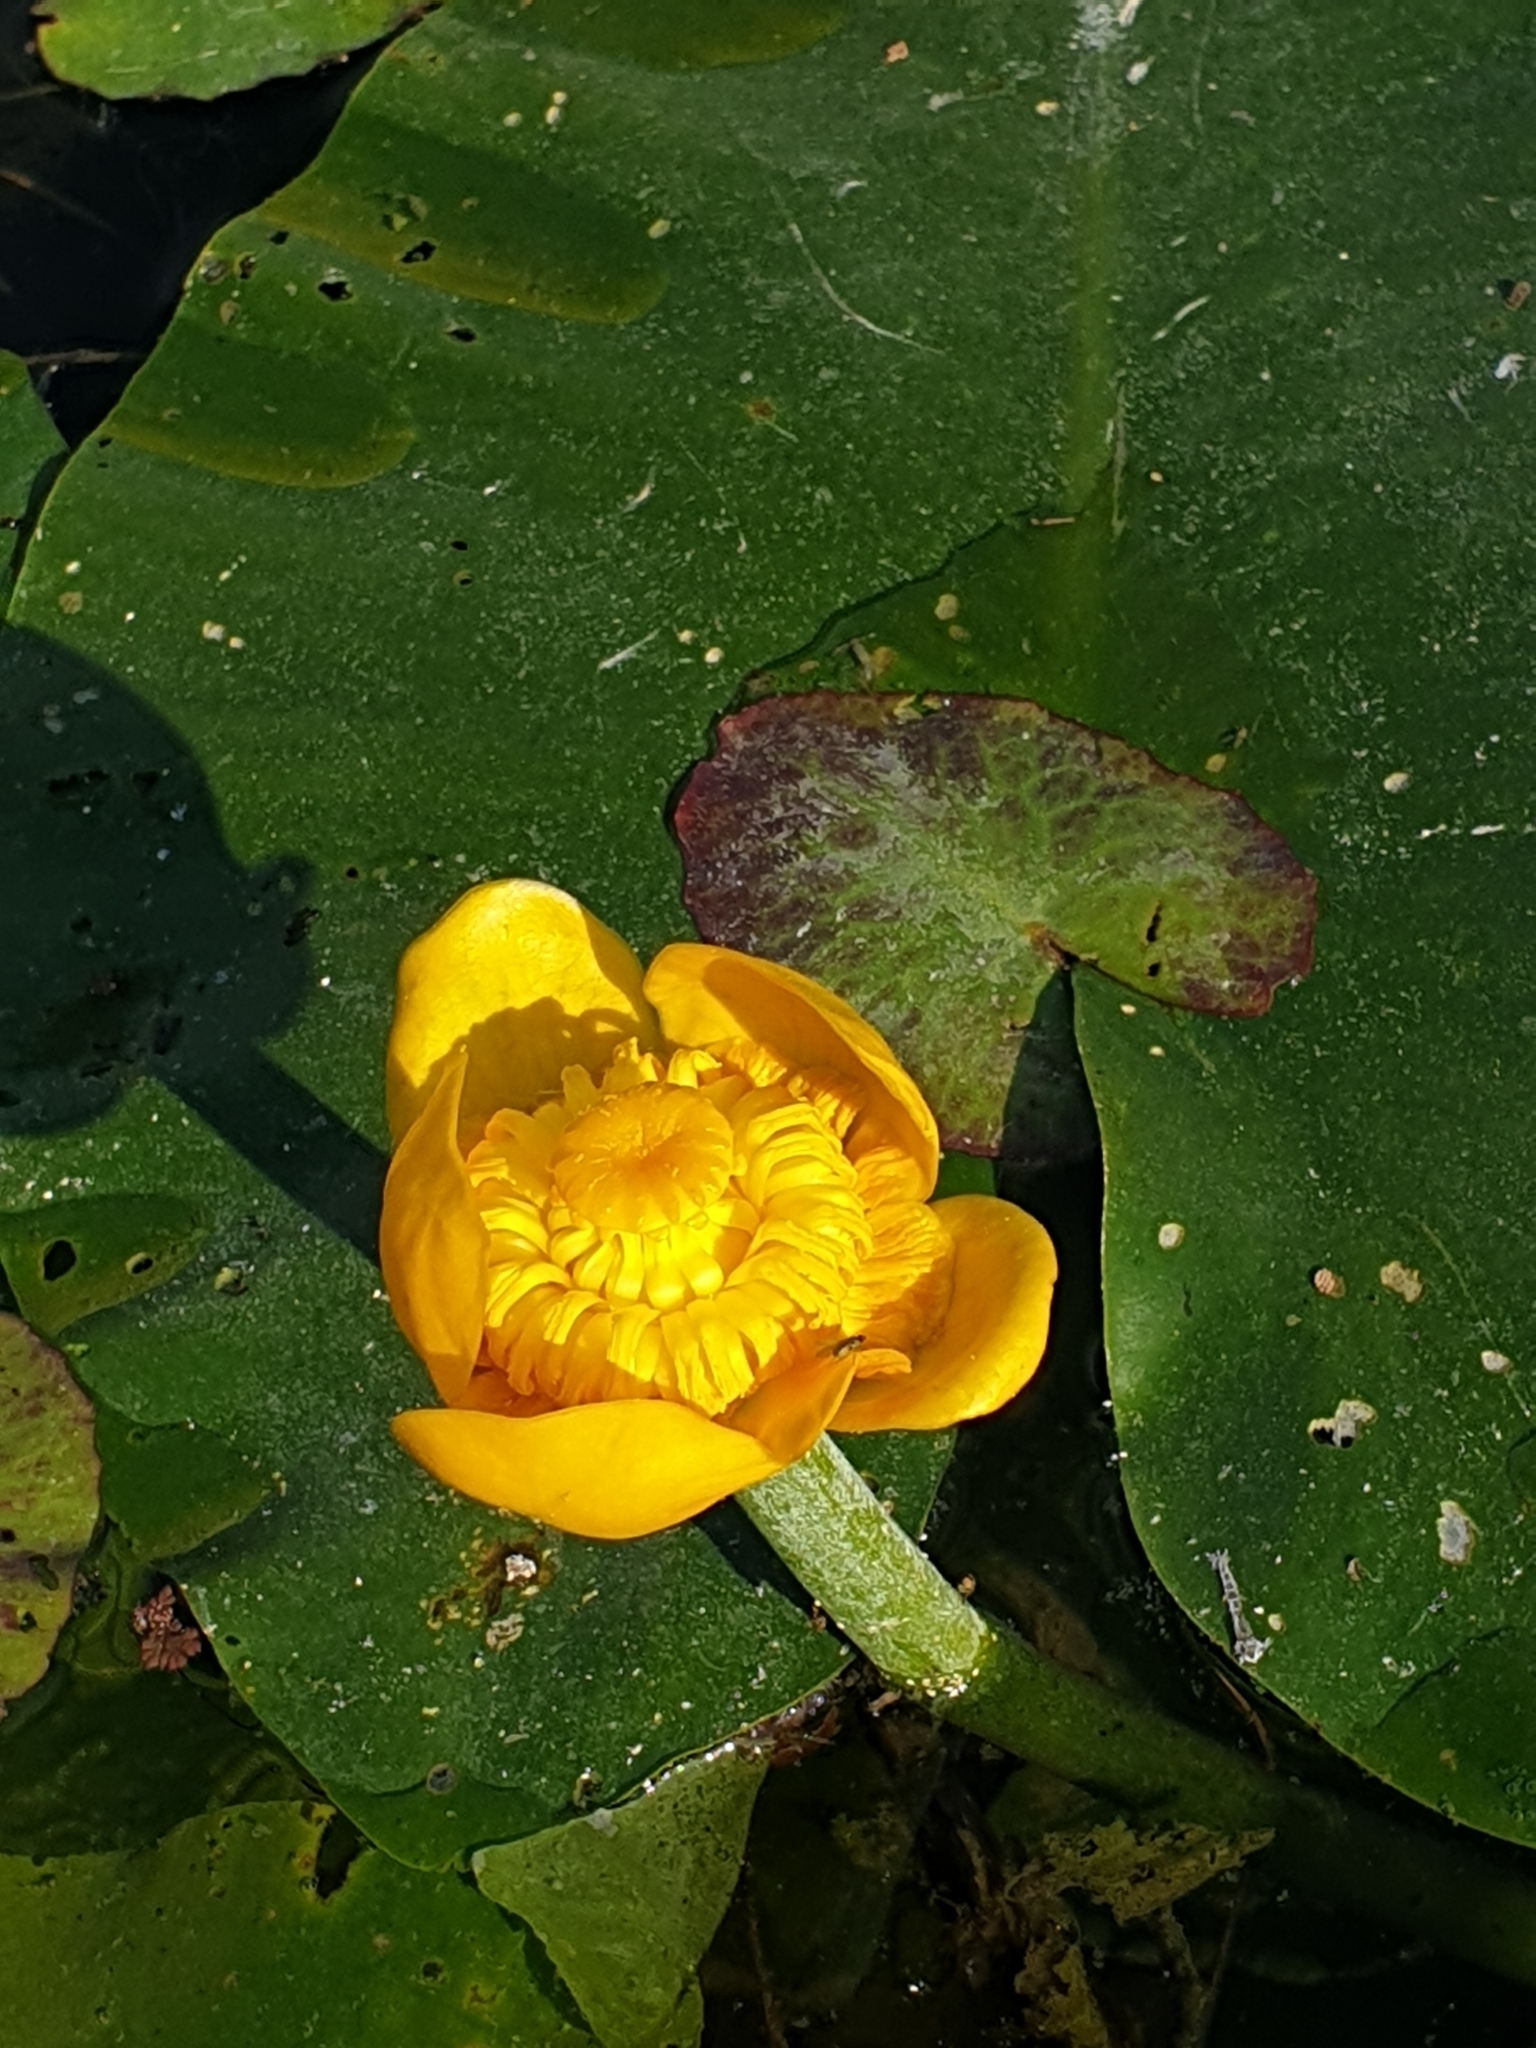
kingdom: Plantae
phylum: Tracheophyta
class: Magnoliopsida
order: Nymphaeales
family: Nymphaeaceae
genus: Nuphar
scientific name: Nuphar lutea
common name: Yellow water-lily
